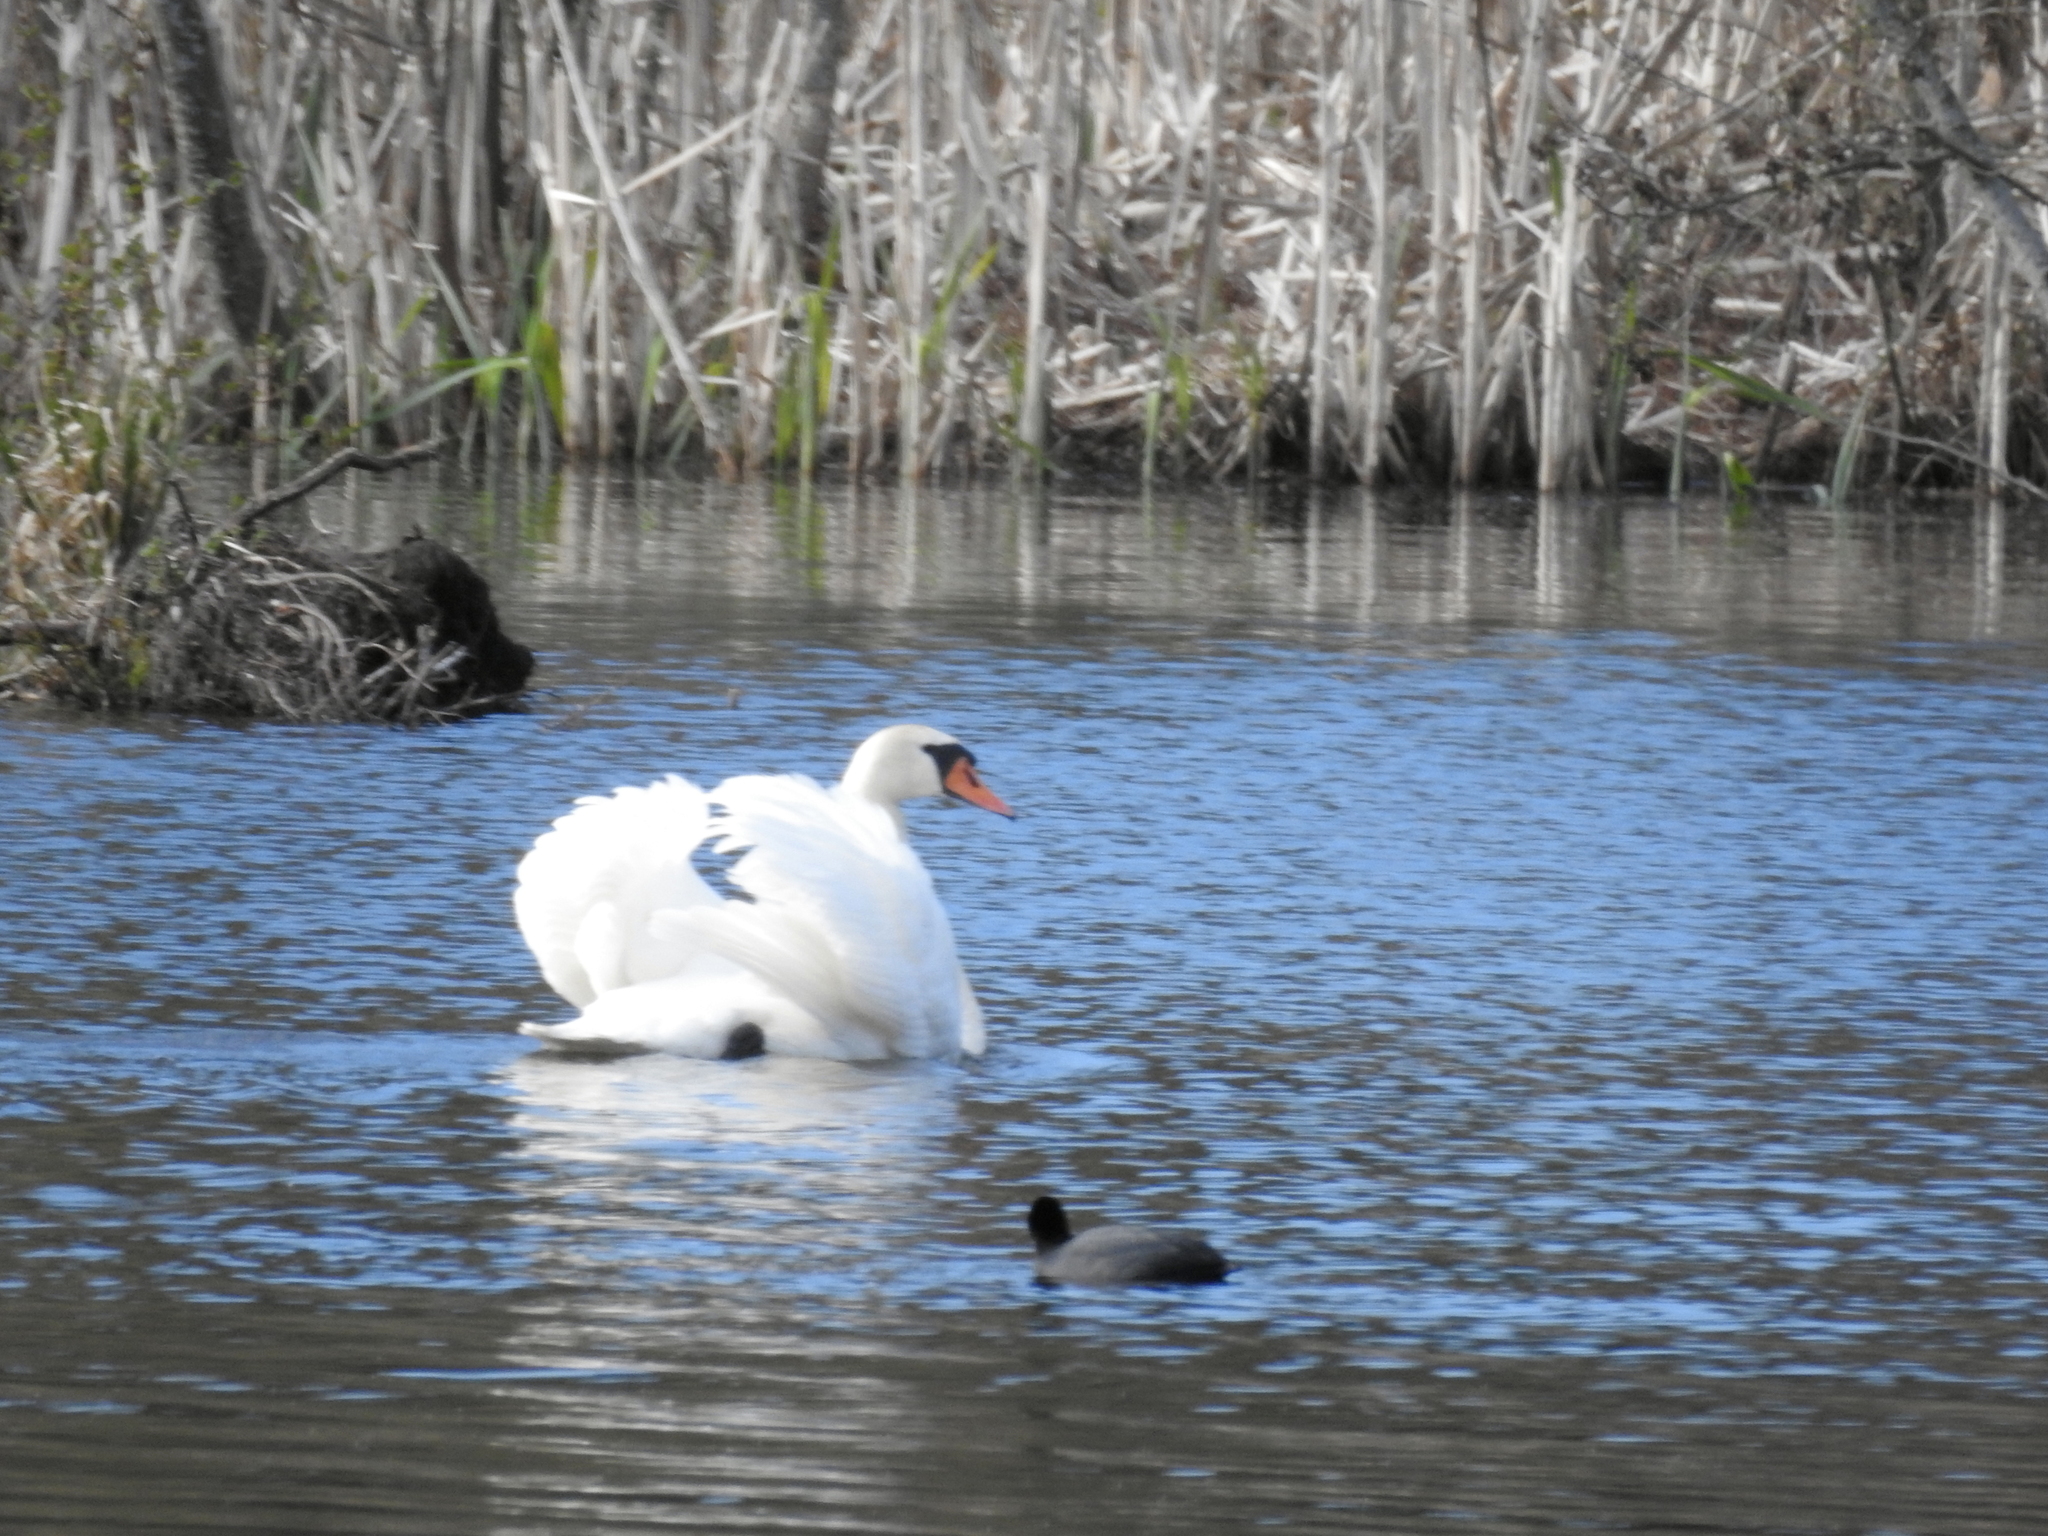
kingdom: Animalia
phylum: Chordata
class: Aves
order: Anseriformes
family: Anatidae
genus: Cygnus
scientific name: Cygnus olor
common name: Mute swan
